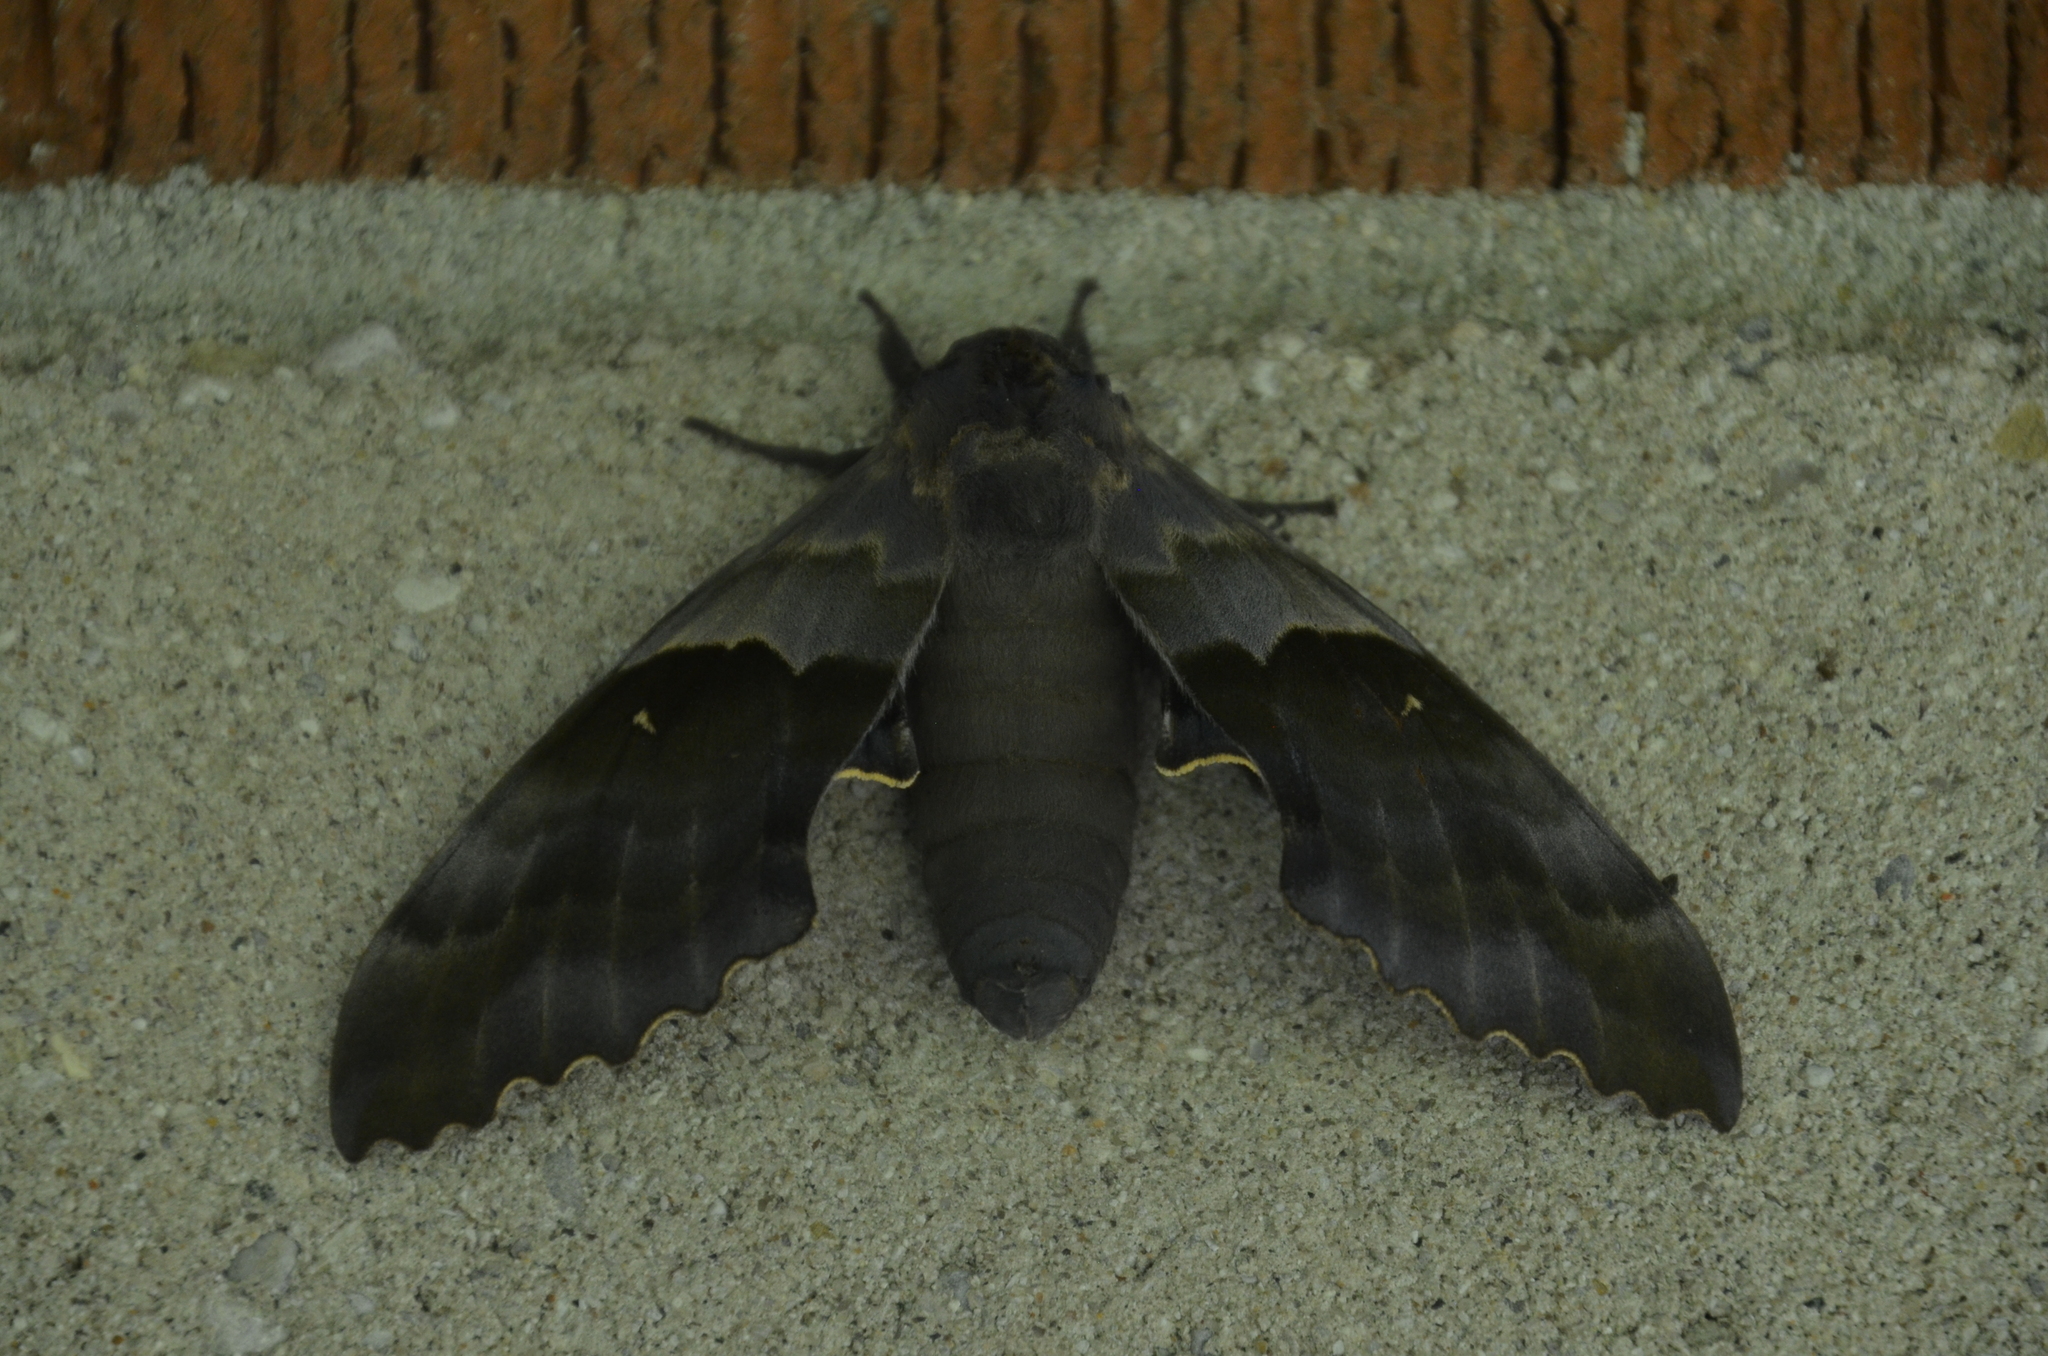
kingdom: Animalia
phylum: Arthropoda
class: Insecta
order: Lepidoptera
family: Sphingidae
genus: Pachysphinx
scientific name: Pachysphinx modesta
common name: Big poplar sphinx
